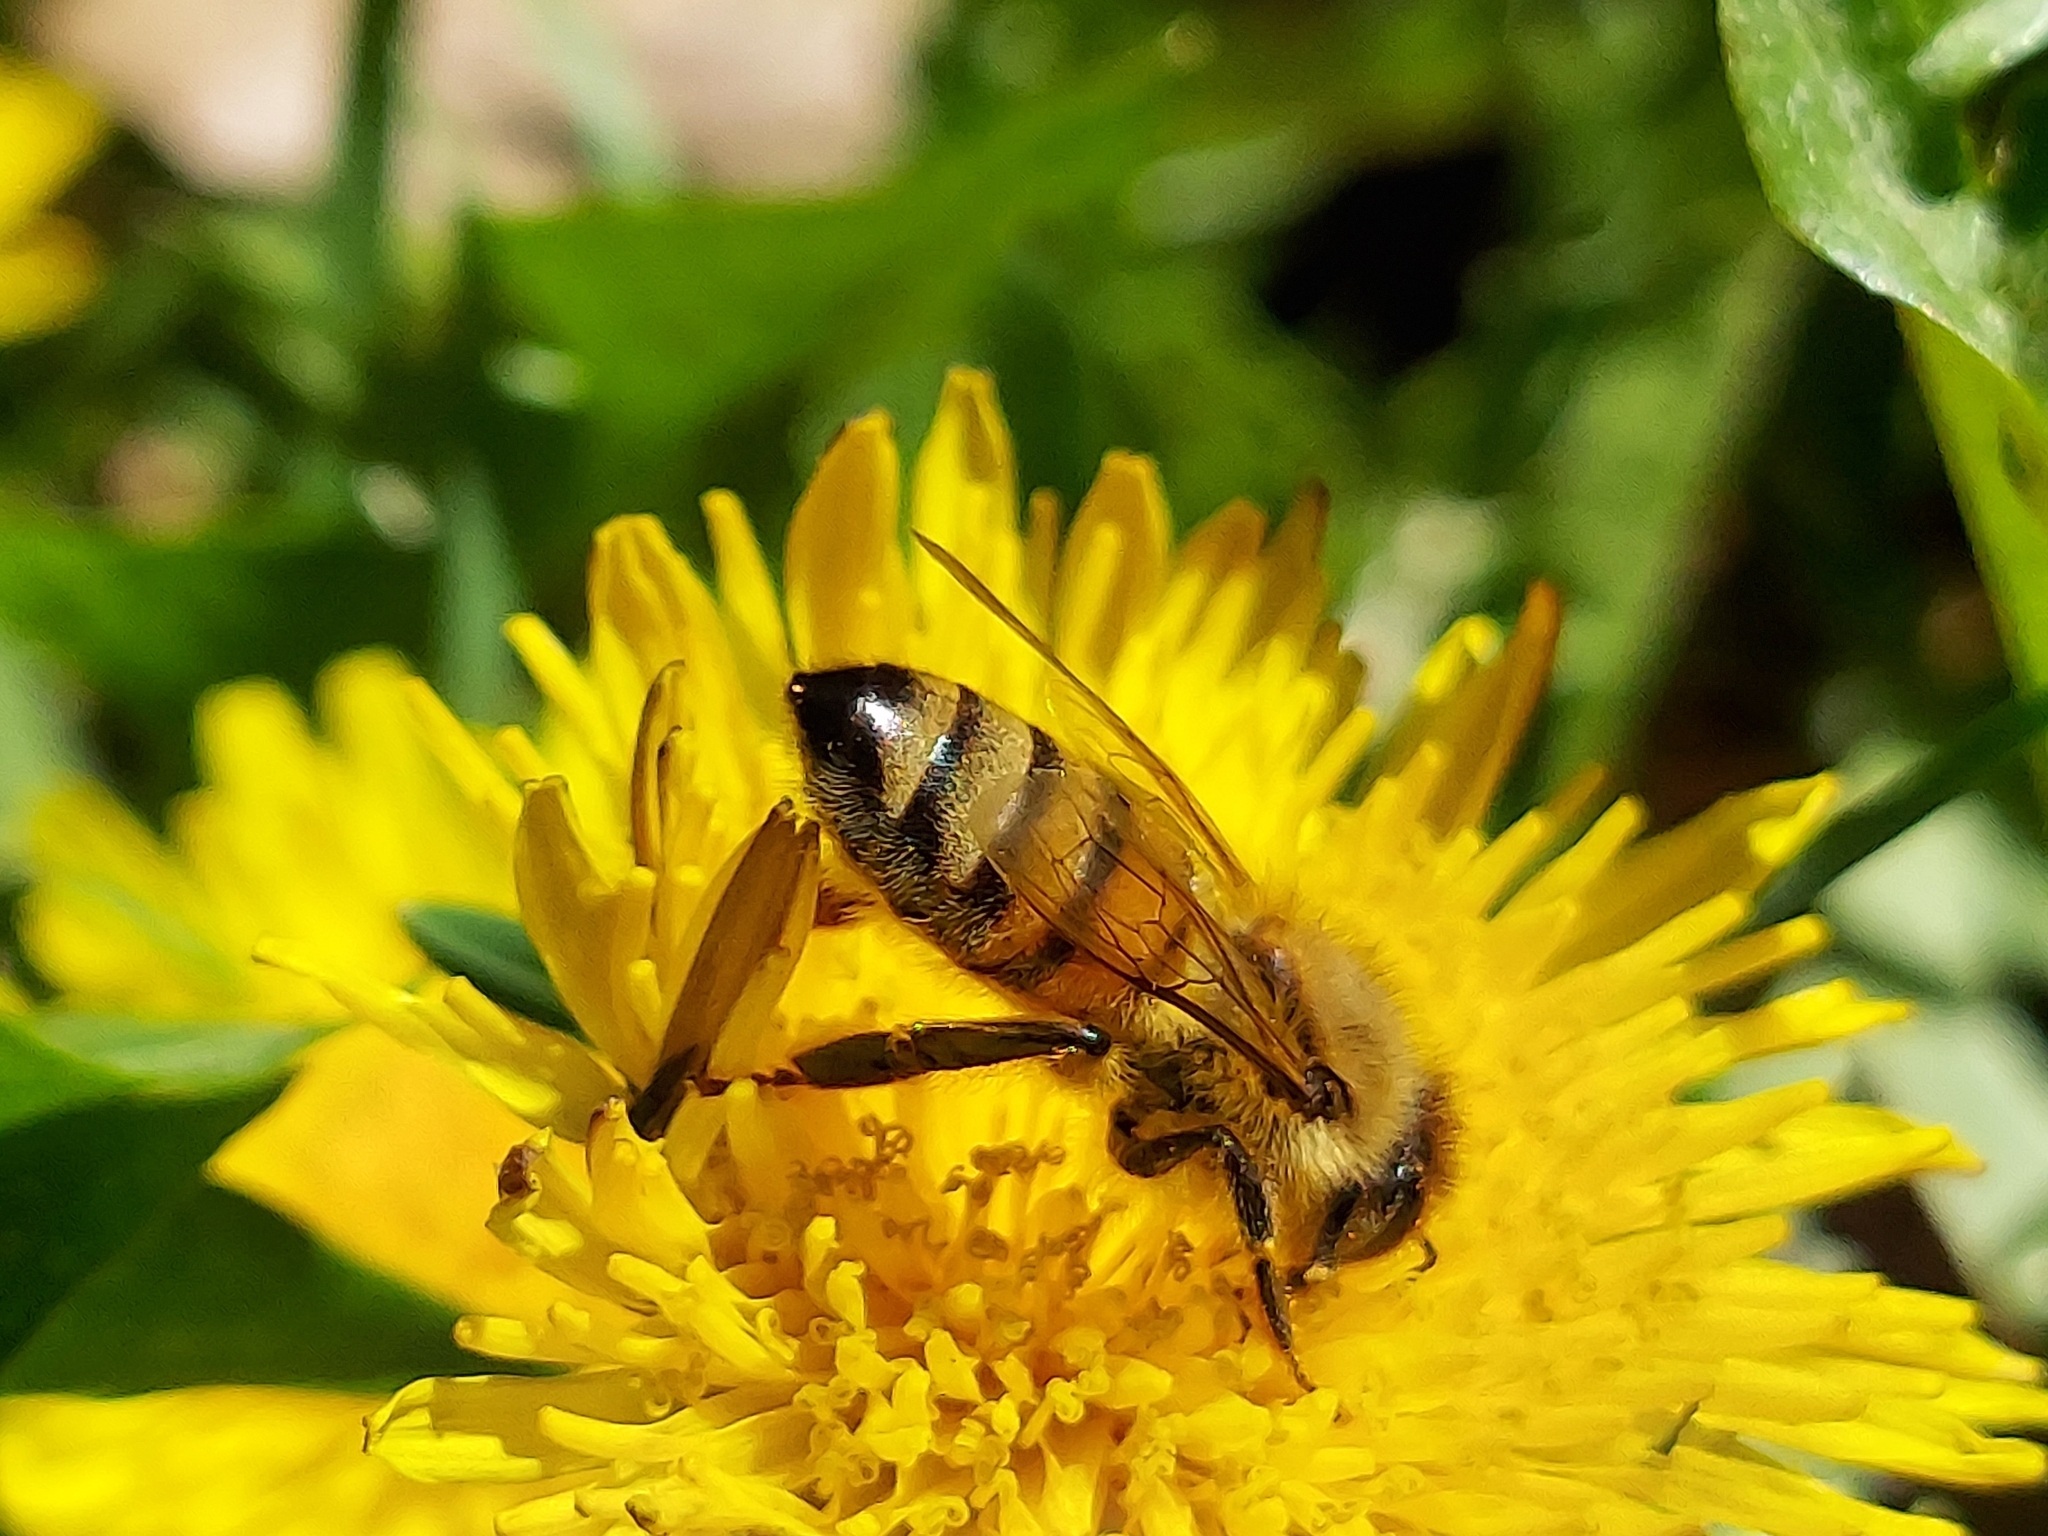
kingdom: Animalia
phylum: Arthropoda
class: Insecta
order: Hymenoptera
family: Apidae
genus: Apis
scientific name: Apis mellifera
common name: Honey bee
